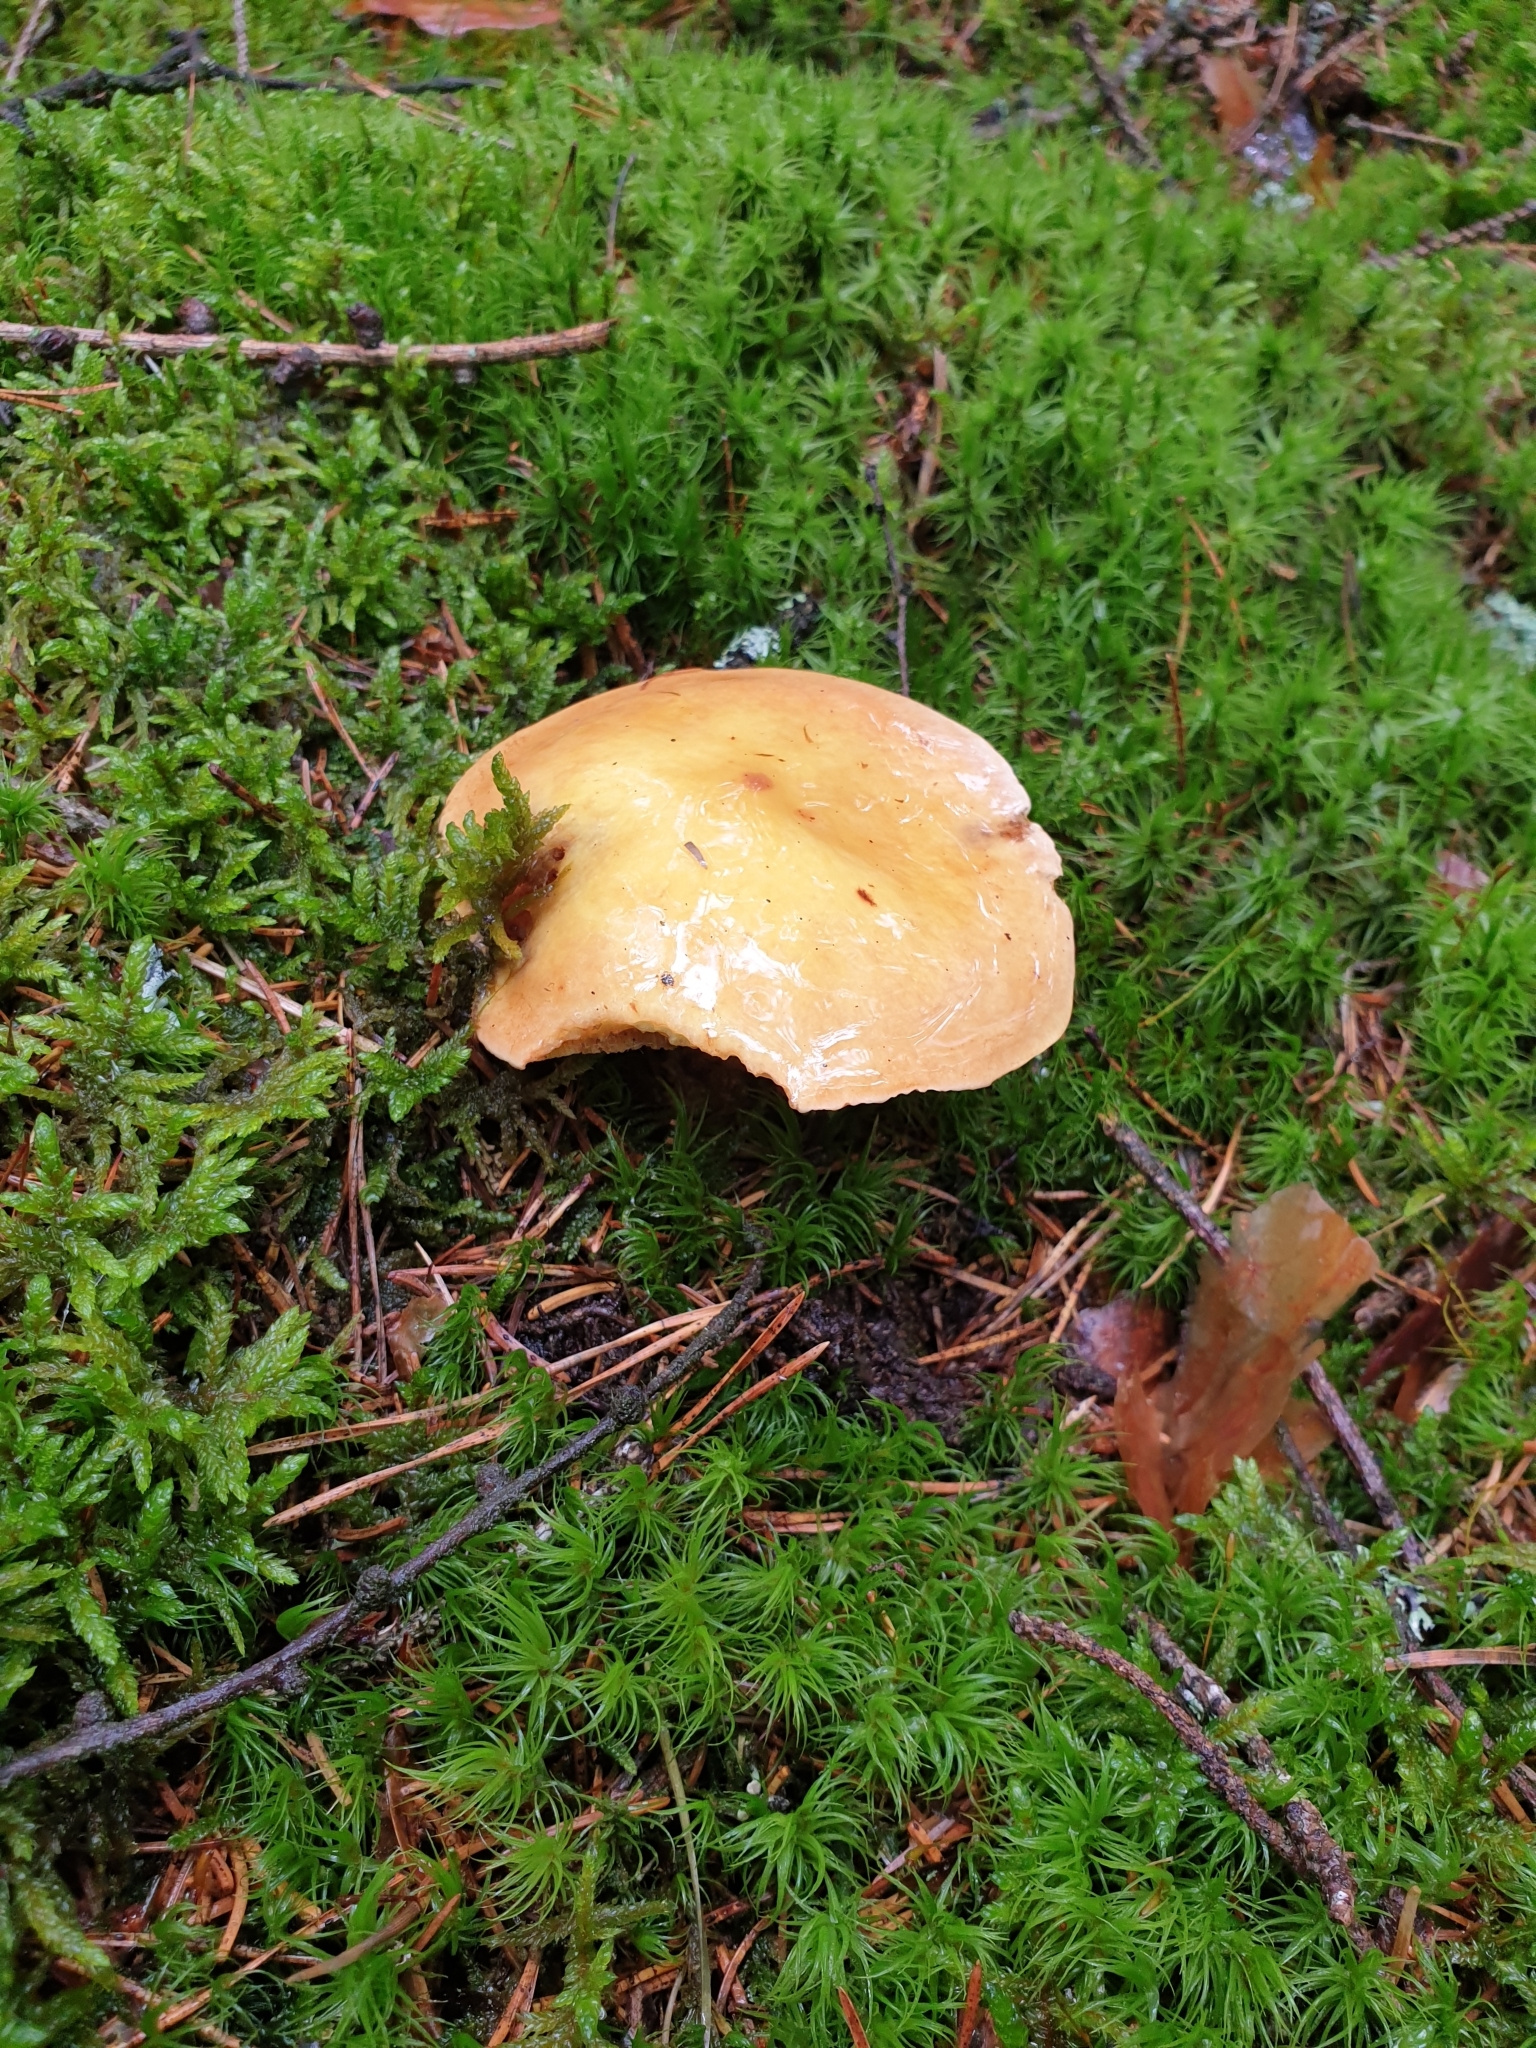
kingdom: Fungi
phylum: Basidiomycota
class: Agaricomycetes
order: Boletales
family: Suillaceae
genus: Suillus
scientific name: Suillus grevillei
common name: Larch bolete
